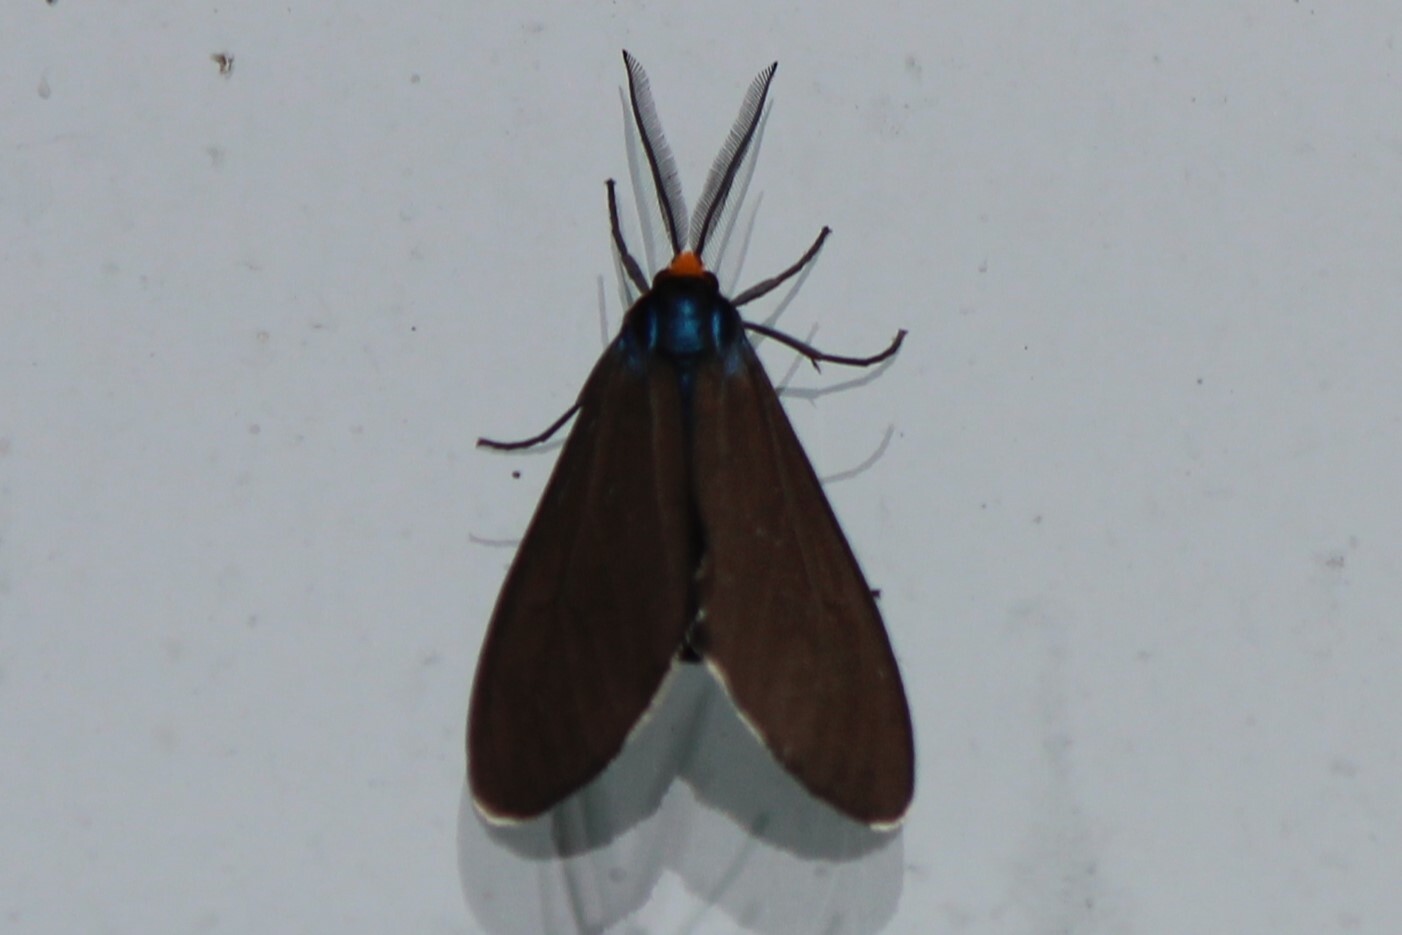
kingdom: Animalia
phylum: Arthropoda
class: Insecta
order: Lepidoptera
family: Erebidae
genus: Ctenucha
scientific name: Ctenucha virginica
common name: Virginia ctenucha moth
